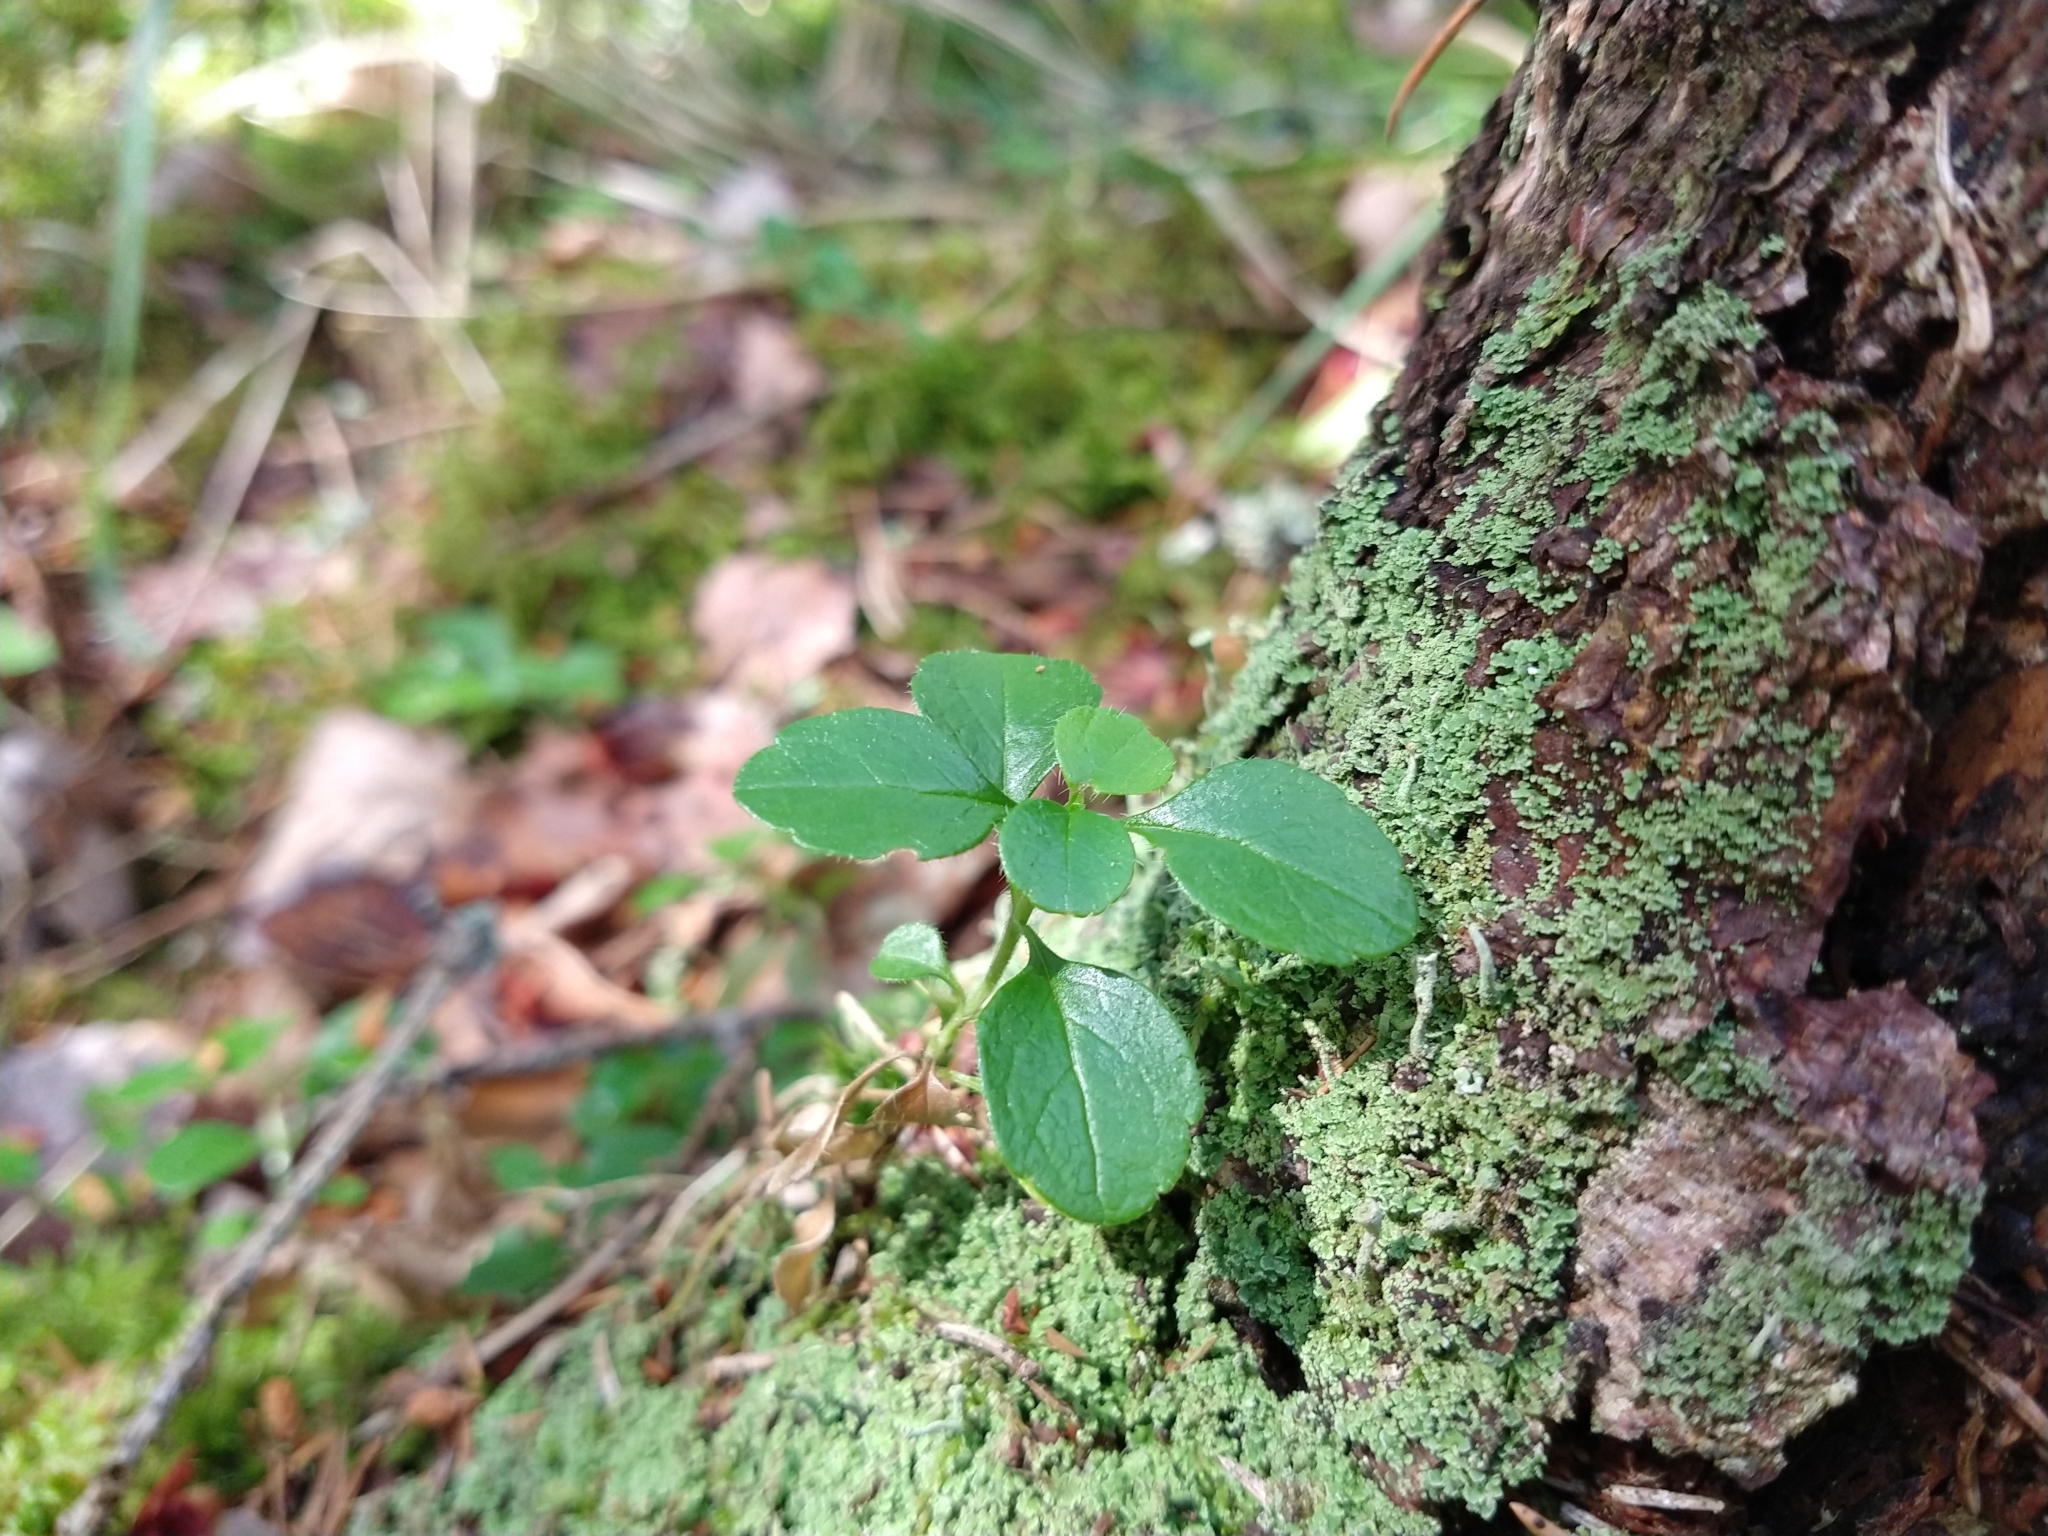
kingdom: Plantae
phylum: Tracheophyta
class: Magnoliopsida
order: Dipsacales
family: Caprifoliaceae
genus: Linnaea
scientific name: Linnaea borealis
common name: Twinflower
